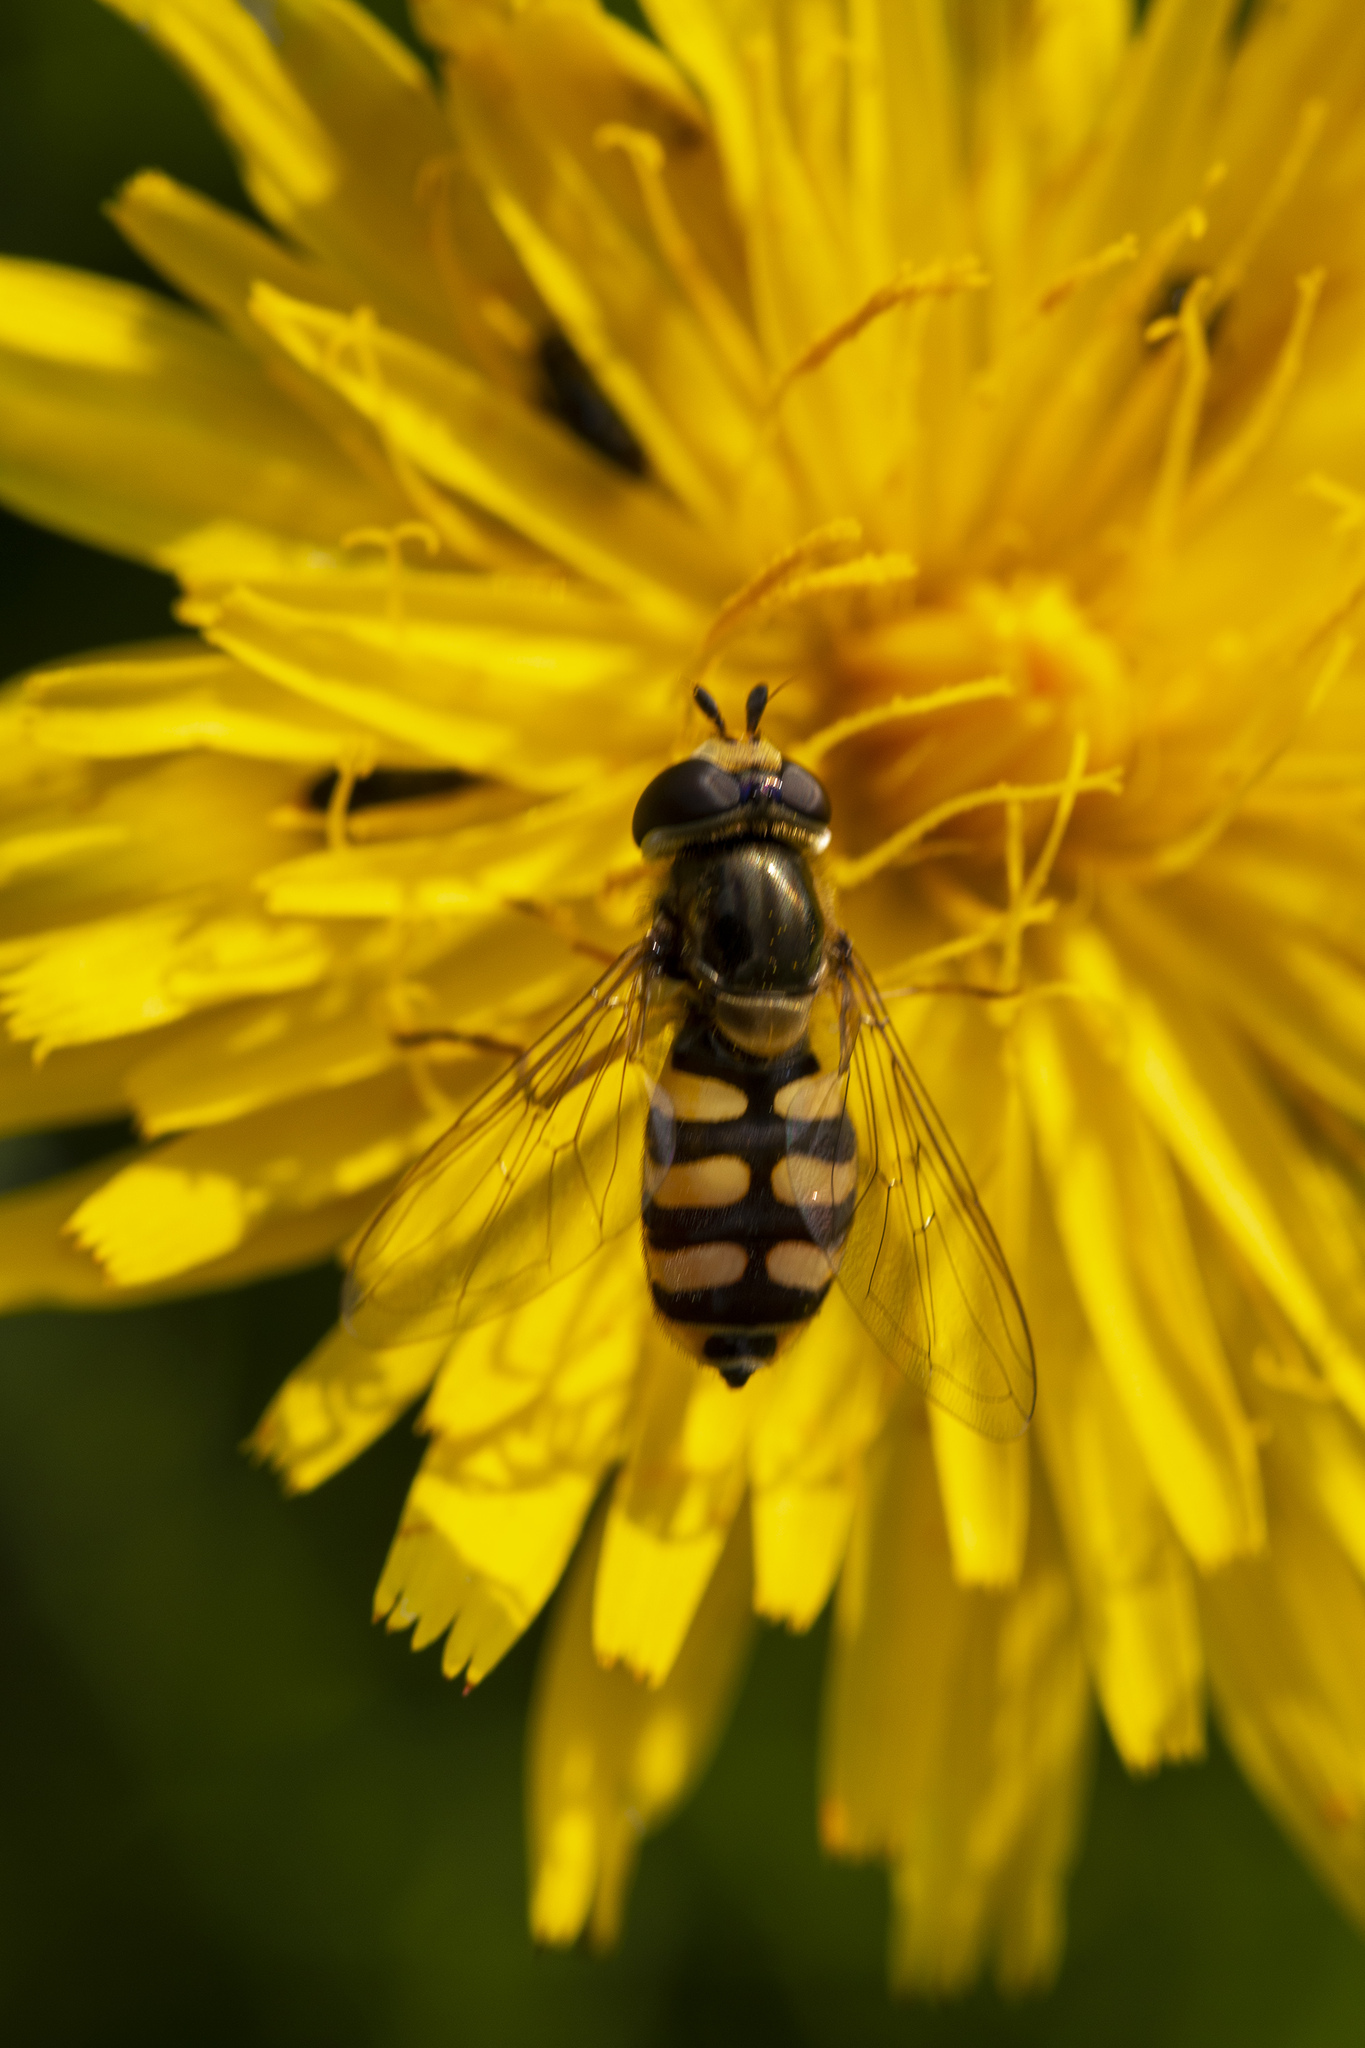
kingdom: Animalia
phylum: Arthropoda
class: Insecta
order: Diptera
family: Syrphidae
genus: Eupeodes
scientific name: Eupeodes corollae
